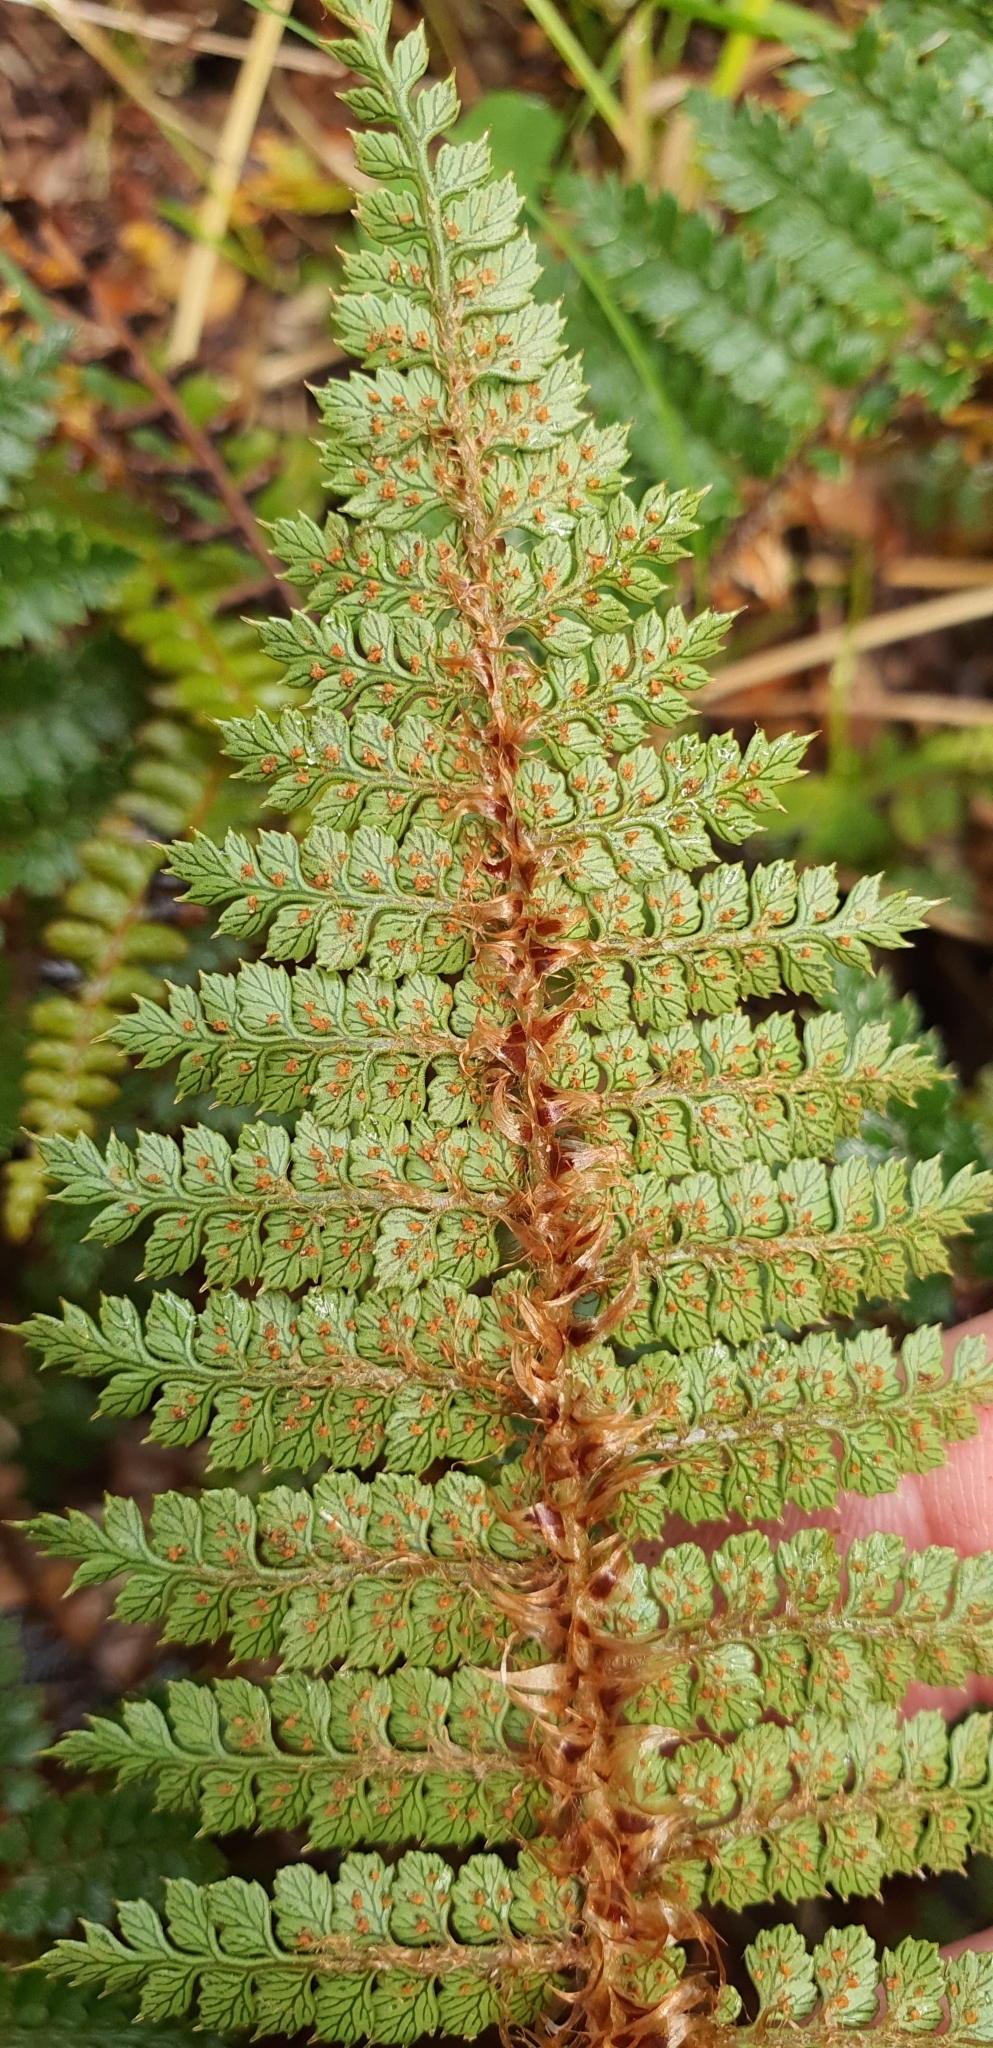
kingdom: Plantae
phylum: Tracheophyta
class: Polypodiopsida
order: Polypodiales
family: Dryopteridaceae
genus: Polystichum
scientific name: Polystichum vestitum
